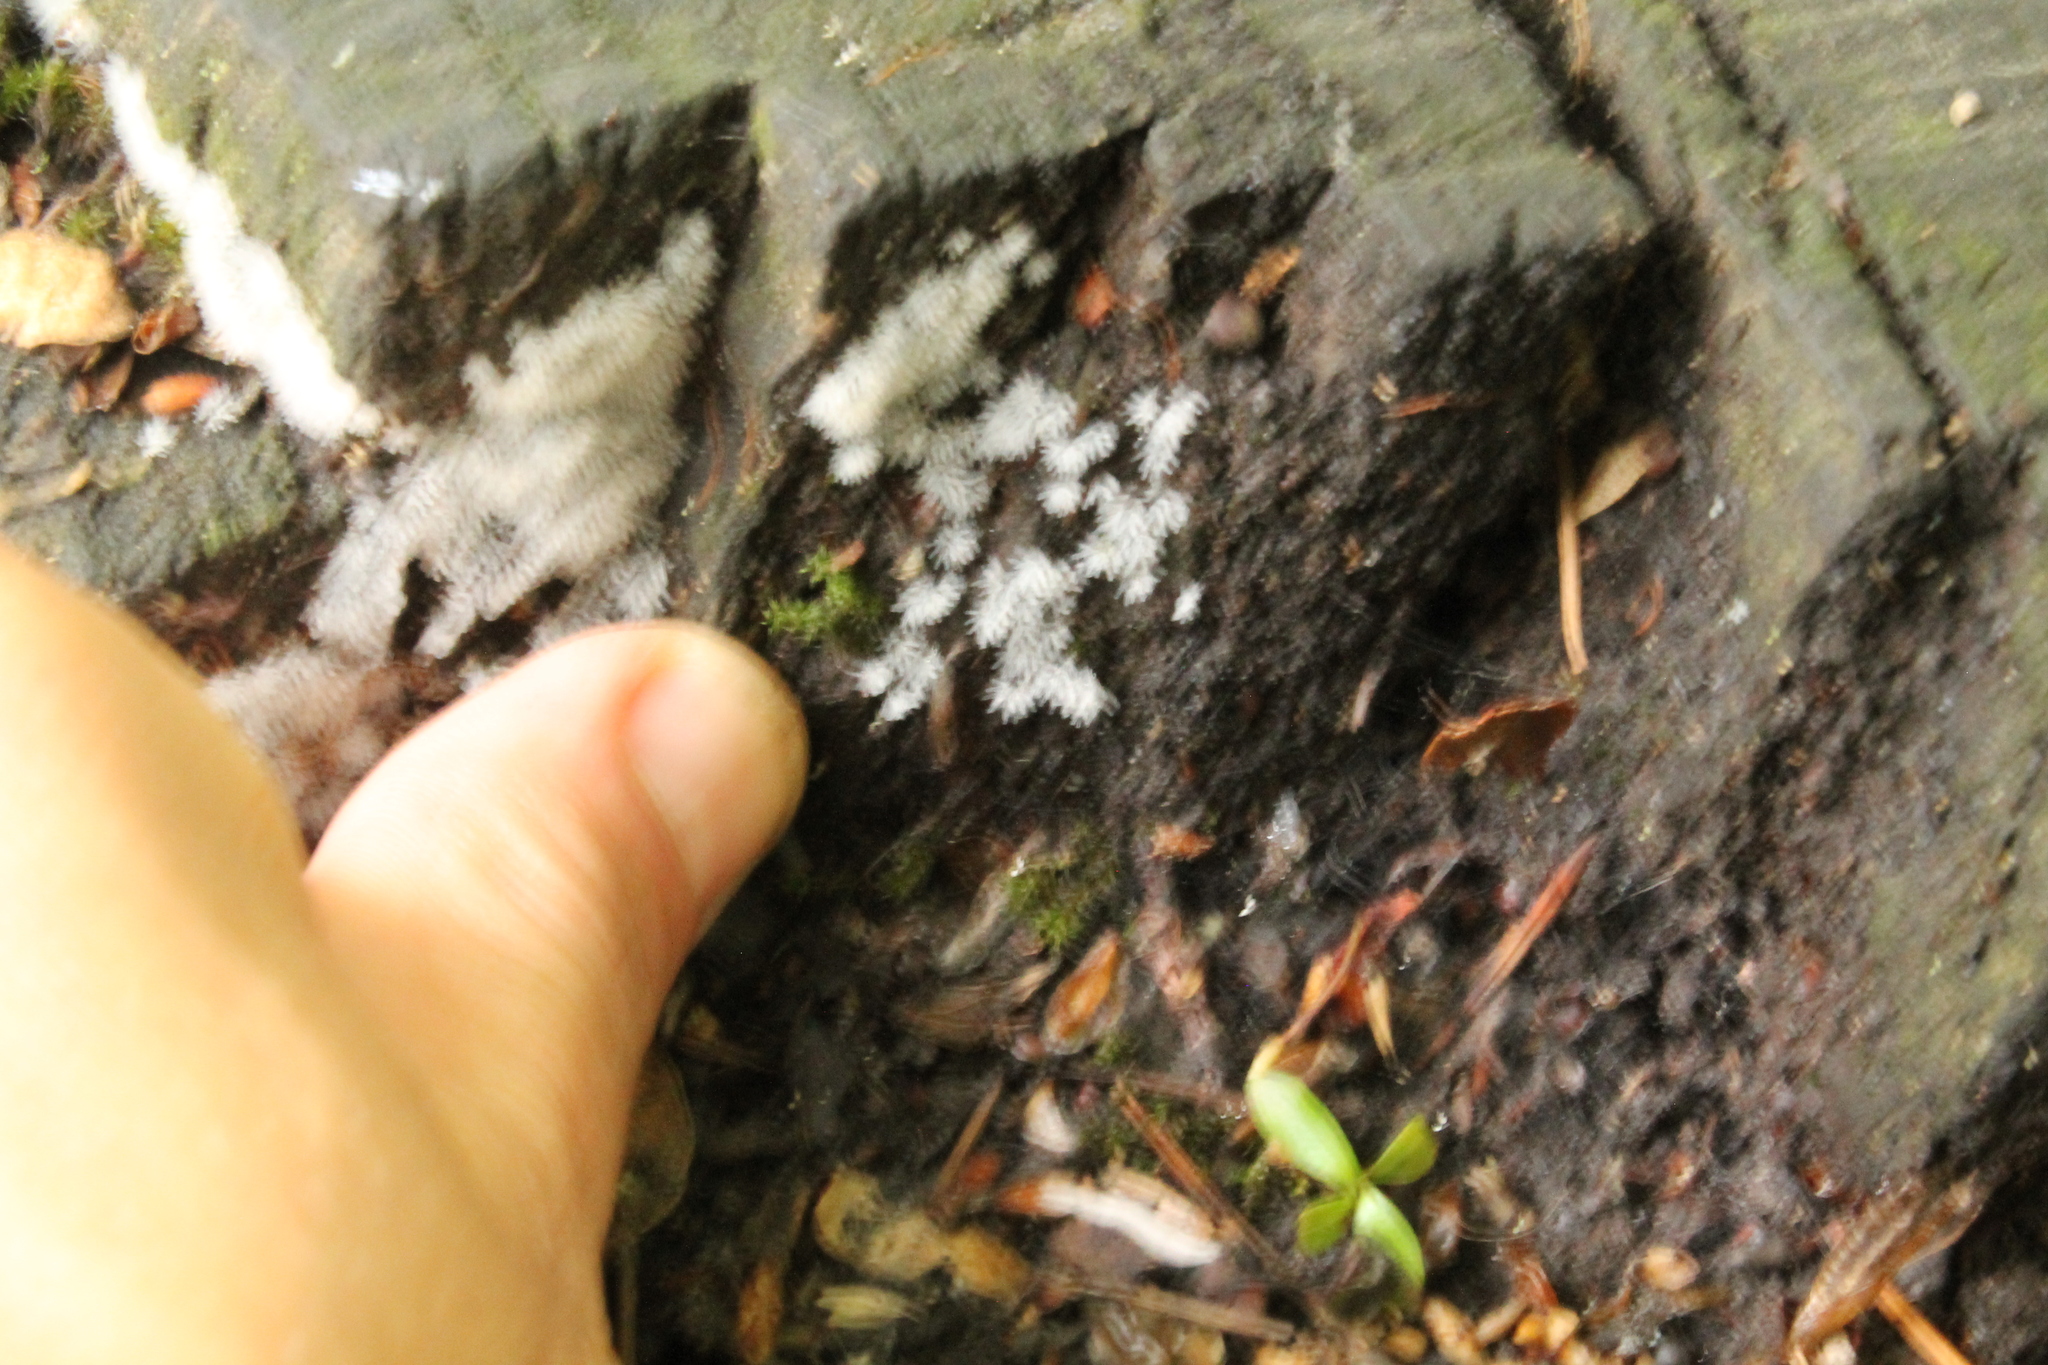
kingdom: Protozoa
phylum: Mycetozoa
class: Protosteliomycetes
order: Ceratiomyxales
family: Ceratiomyxaceae
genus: Ceratiomyxa
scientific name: Ceratiomyxa fruticulosa
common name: Honeycomb coral slime mold
